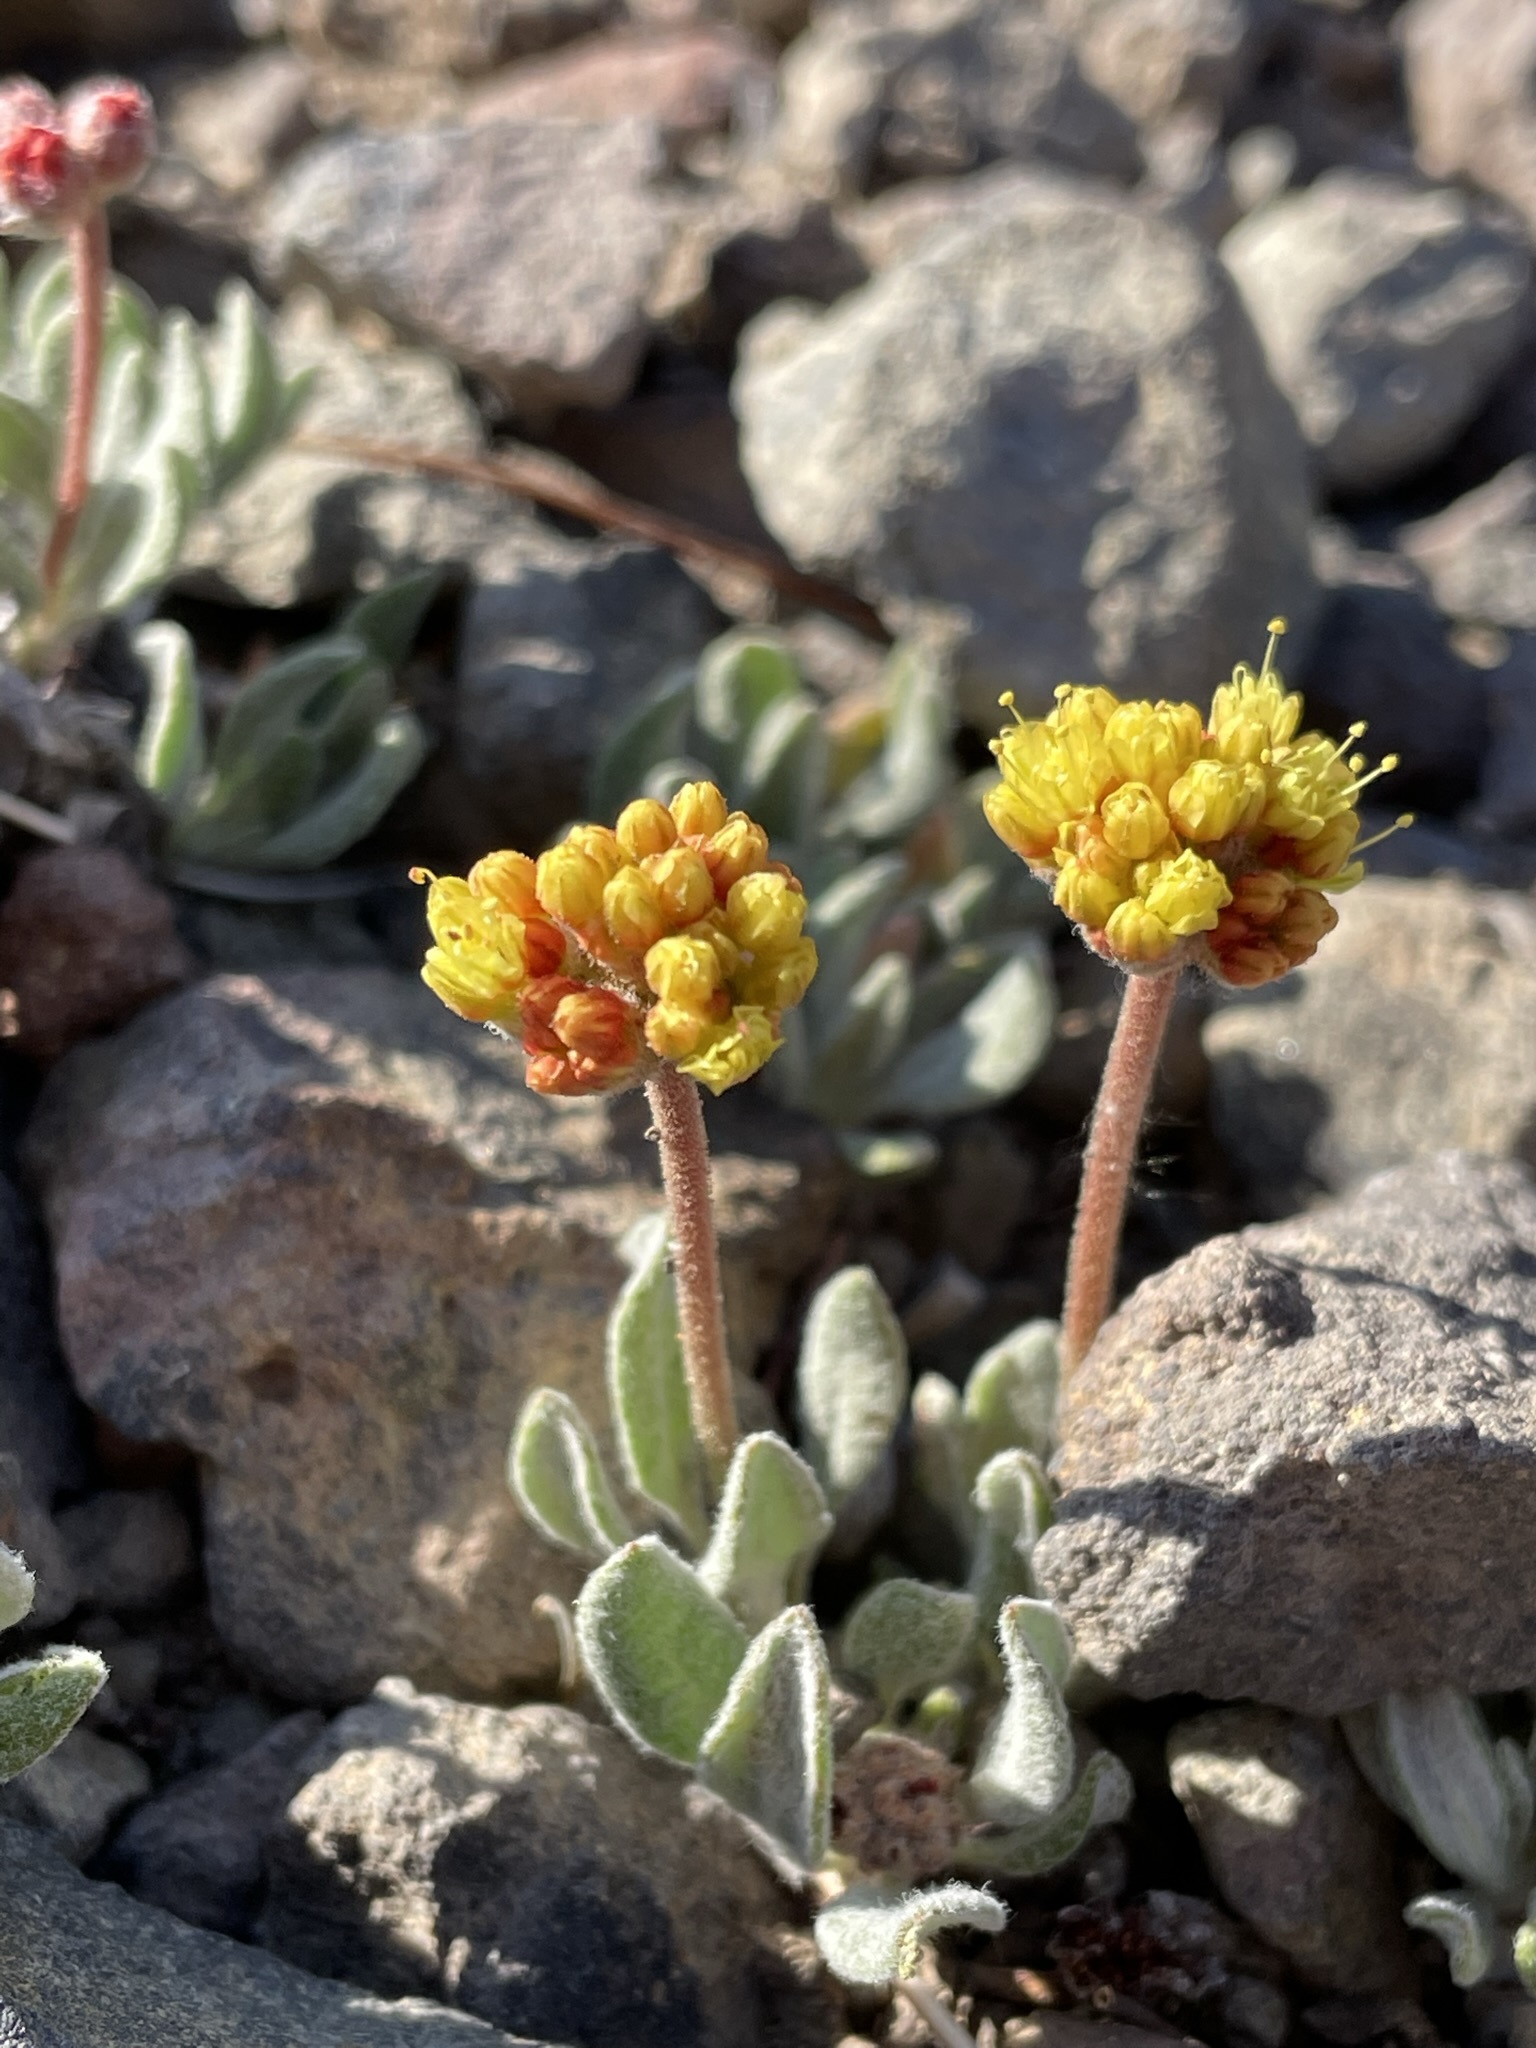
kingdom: Plantae
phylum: Tracheophyta
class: Magnoliopsida
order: Caryophyllales
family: Polygonaceae
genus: Eriogonum
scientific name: Eriogonum rosense
